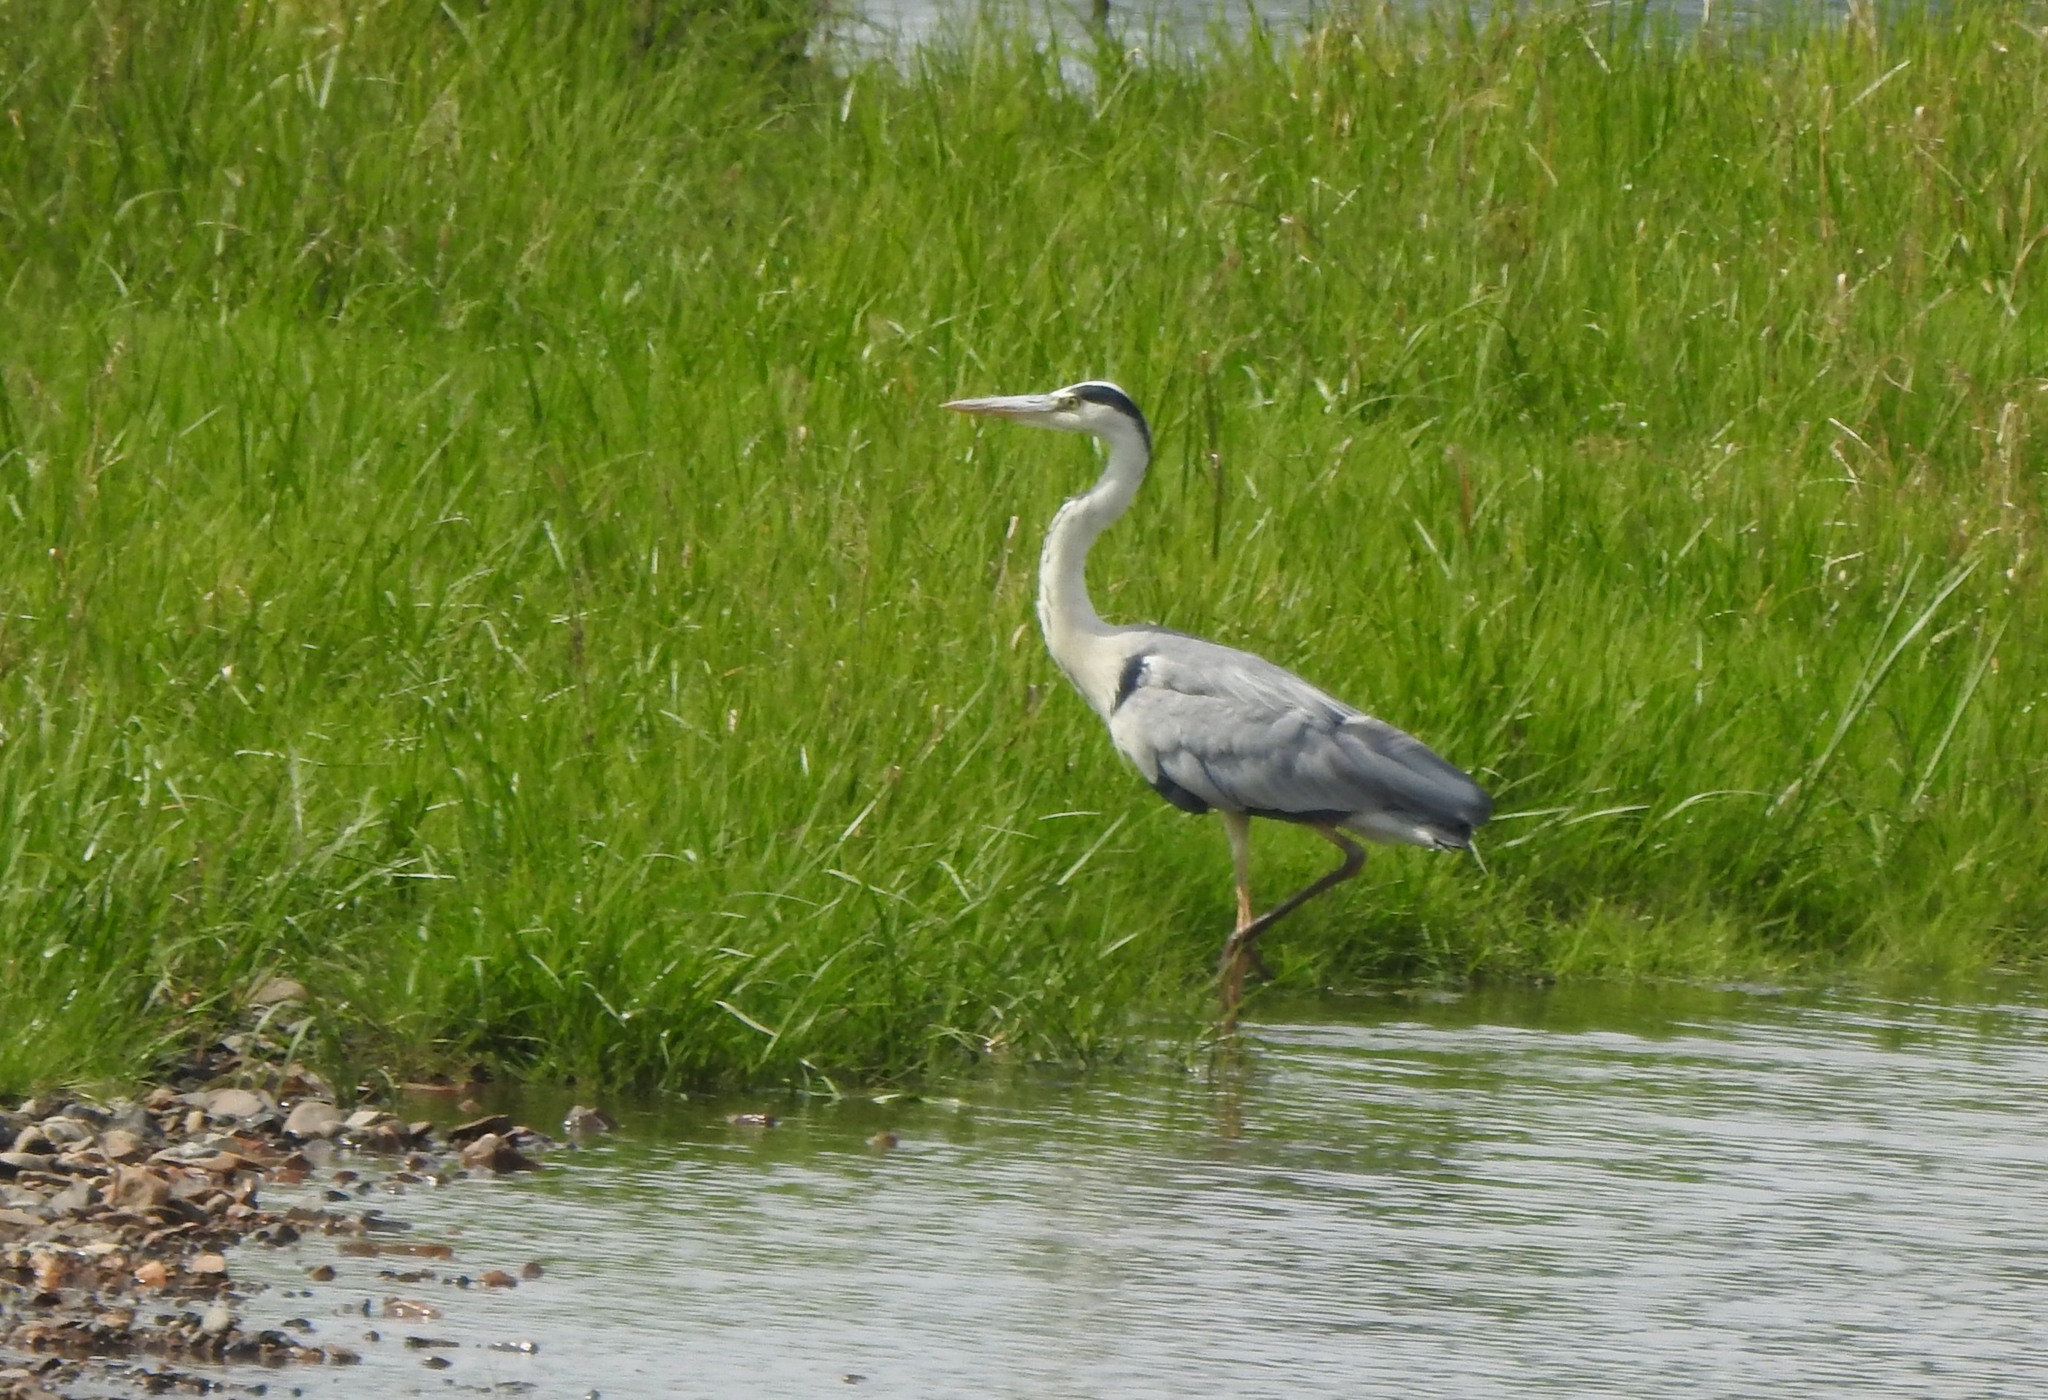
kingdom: Animalia
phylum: Chordata
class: Aves
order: Pelecaniformes
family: Ardeidae
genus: Ardea
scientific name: Ardea cinerea
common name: Grey heron
